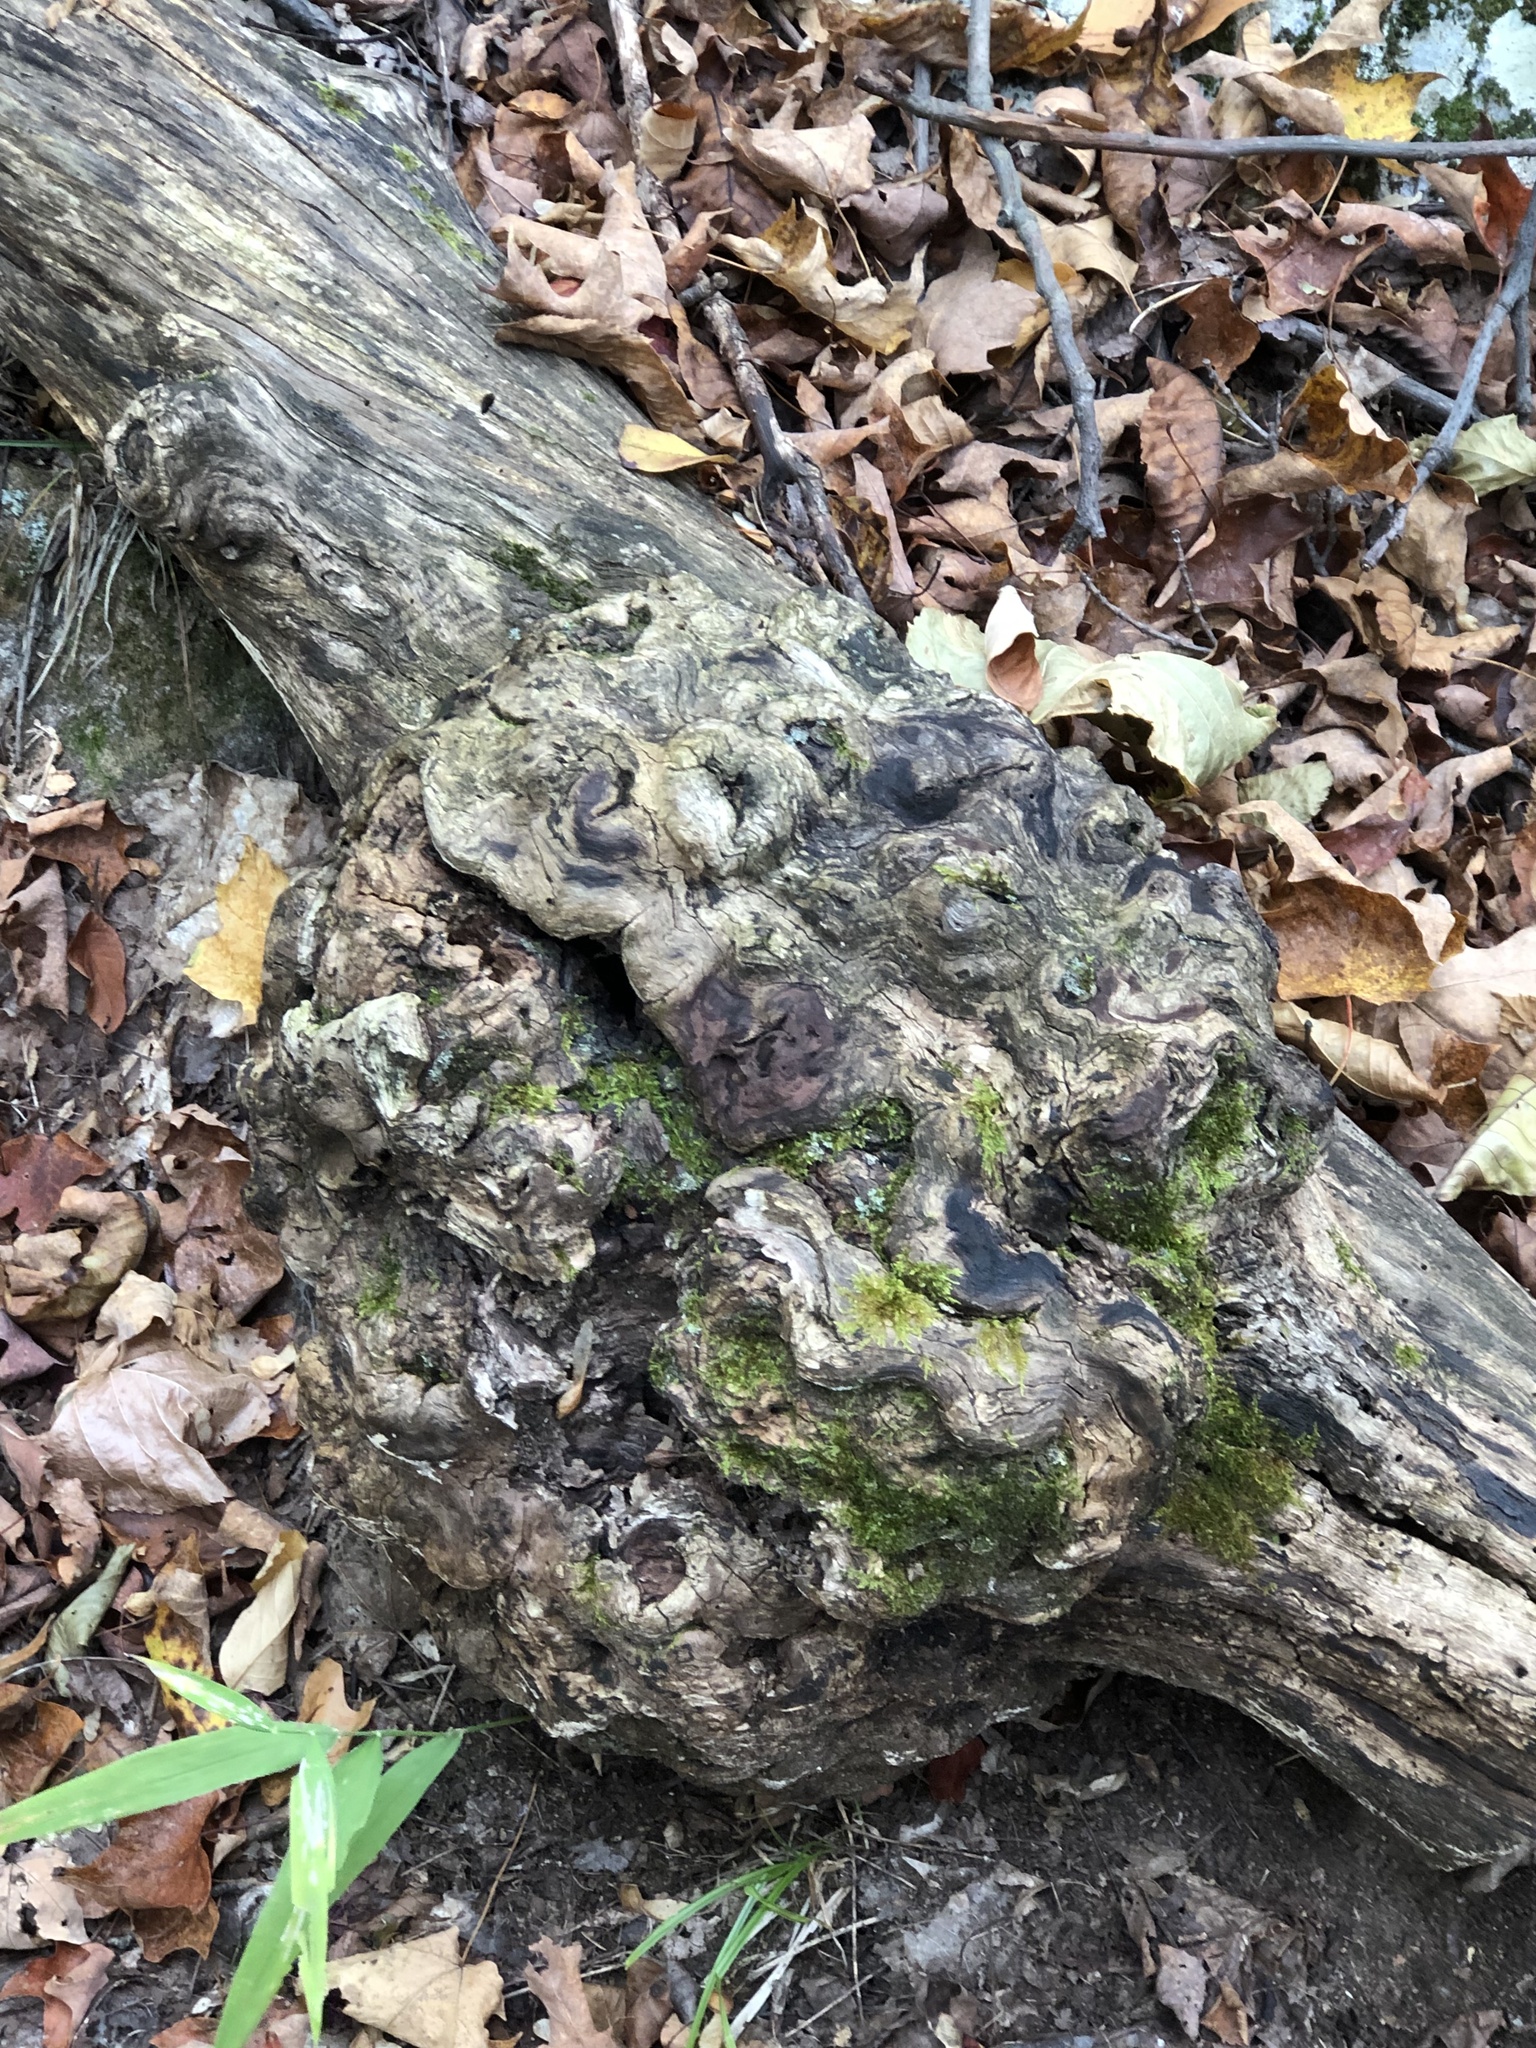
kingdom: Bacteria
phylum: Proteobacteria
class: Alphaproteobacteria
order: Rhizobiales
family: Rhizobiaceae
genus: Rhizobium
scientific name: Rhizobium Agrobacterium radiobacter
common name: Bacterial crown gall
